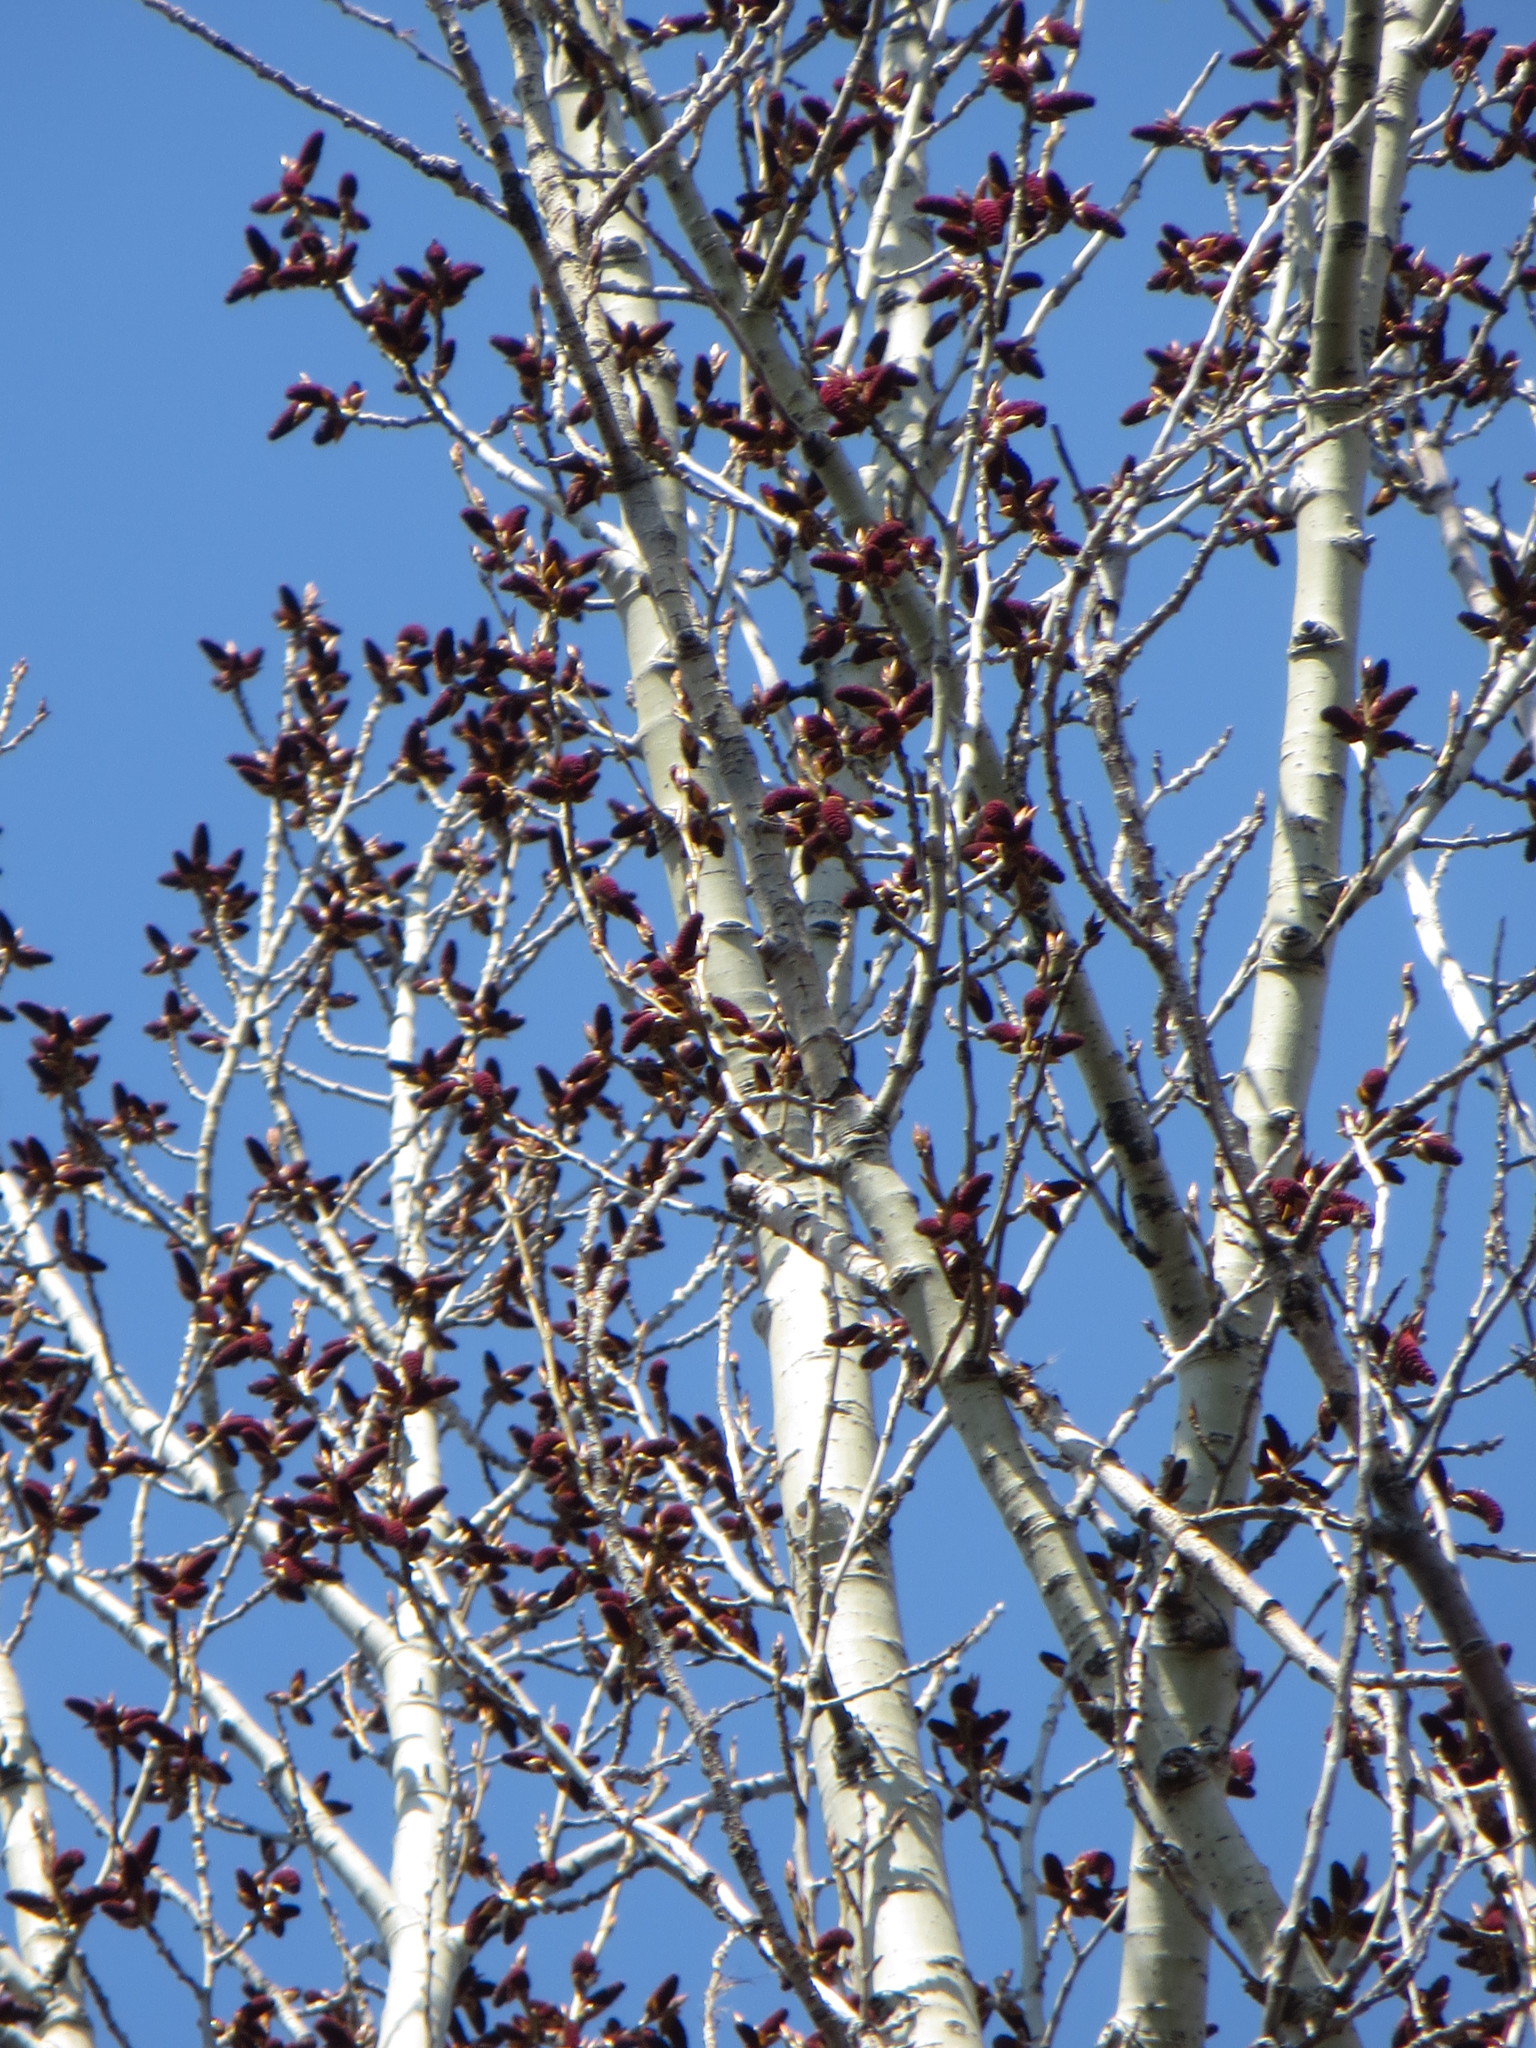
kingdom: Plantae
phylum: Tracheophyta
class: Magnoliopsida
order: Malpighiales
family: Salicaceae
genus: Populus
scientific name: Populus nigra
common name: Black poplar
